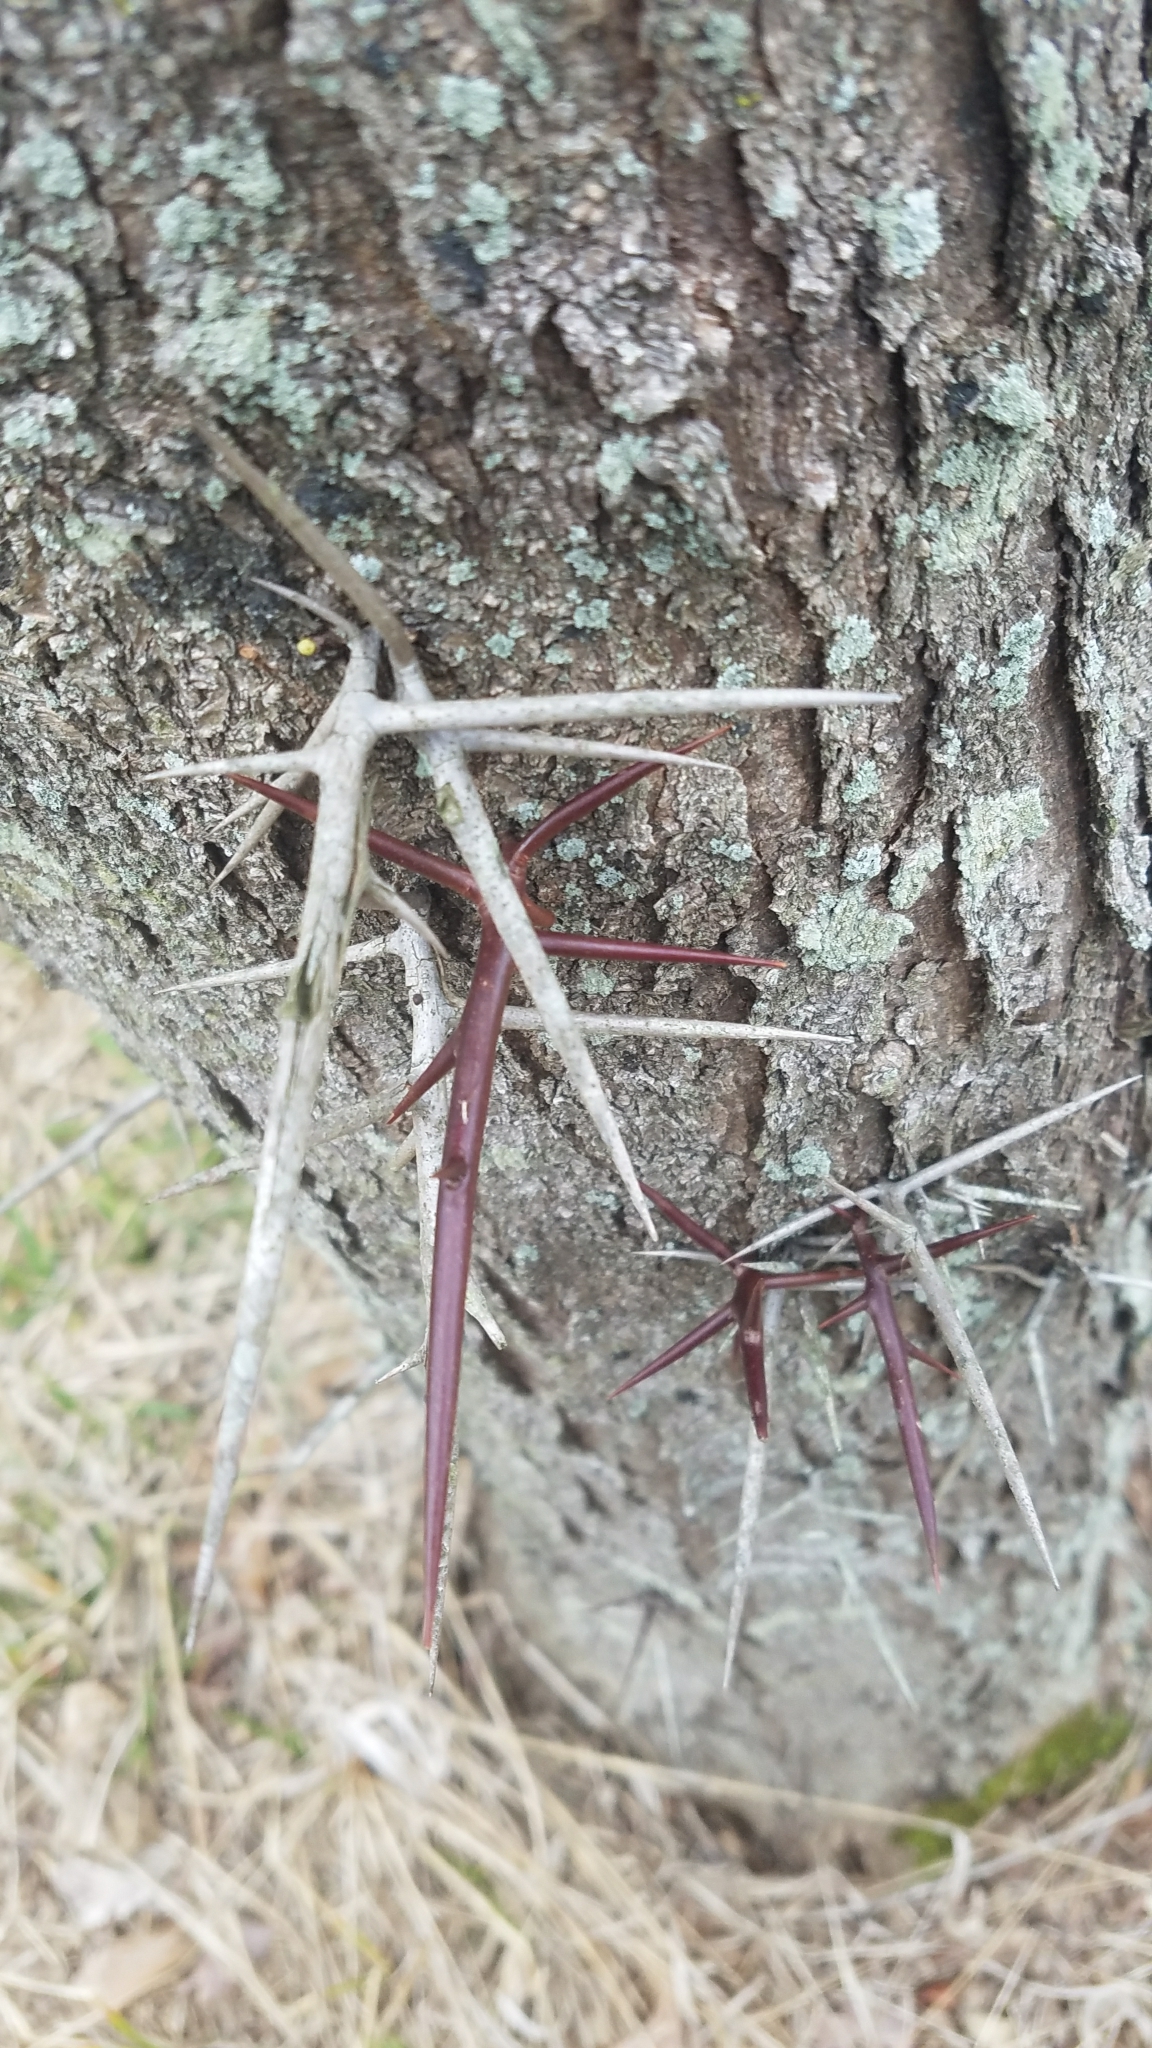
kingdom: Plantae
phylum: Tracheophyta
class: Magnoliopsida
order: Fabales
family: Fabaceae
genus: Gleditsia
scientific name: Gleditsia triacanthos
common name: Common honeylocust
